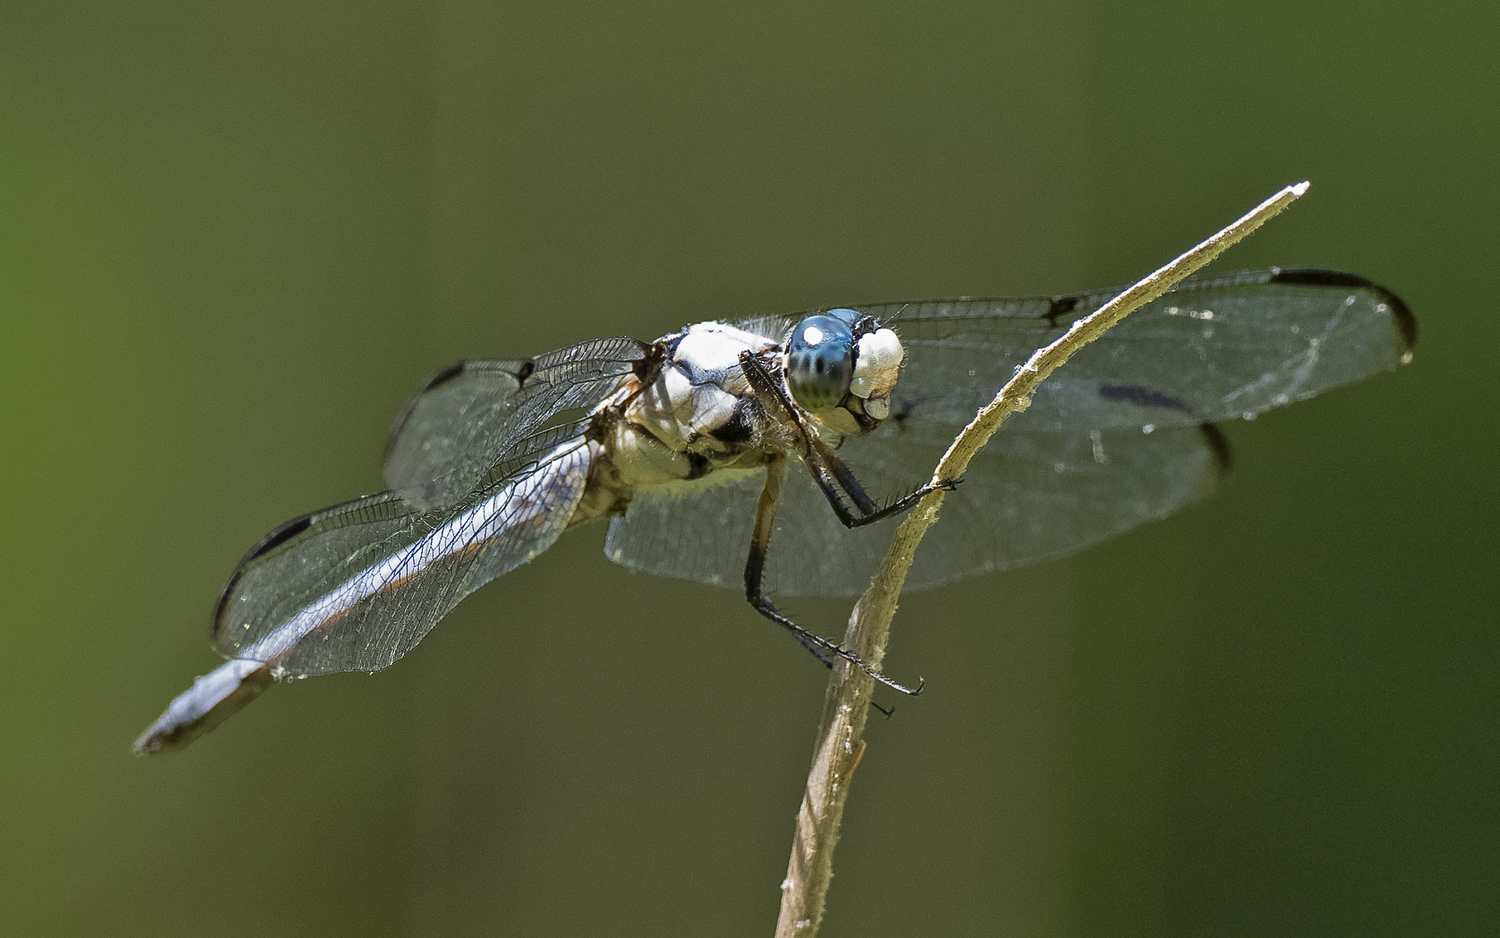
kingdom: Animalia
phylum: Arthropoda
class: Insecta
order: Odonata
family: Libellulidae
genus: Libellula
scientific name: Libellula vibrans
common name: Great blue skimmer
